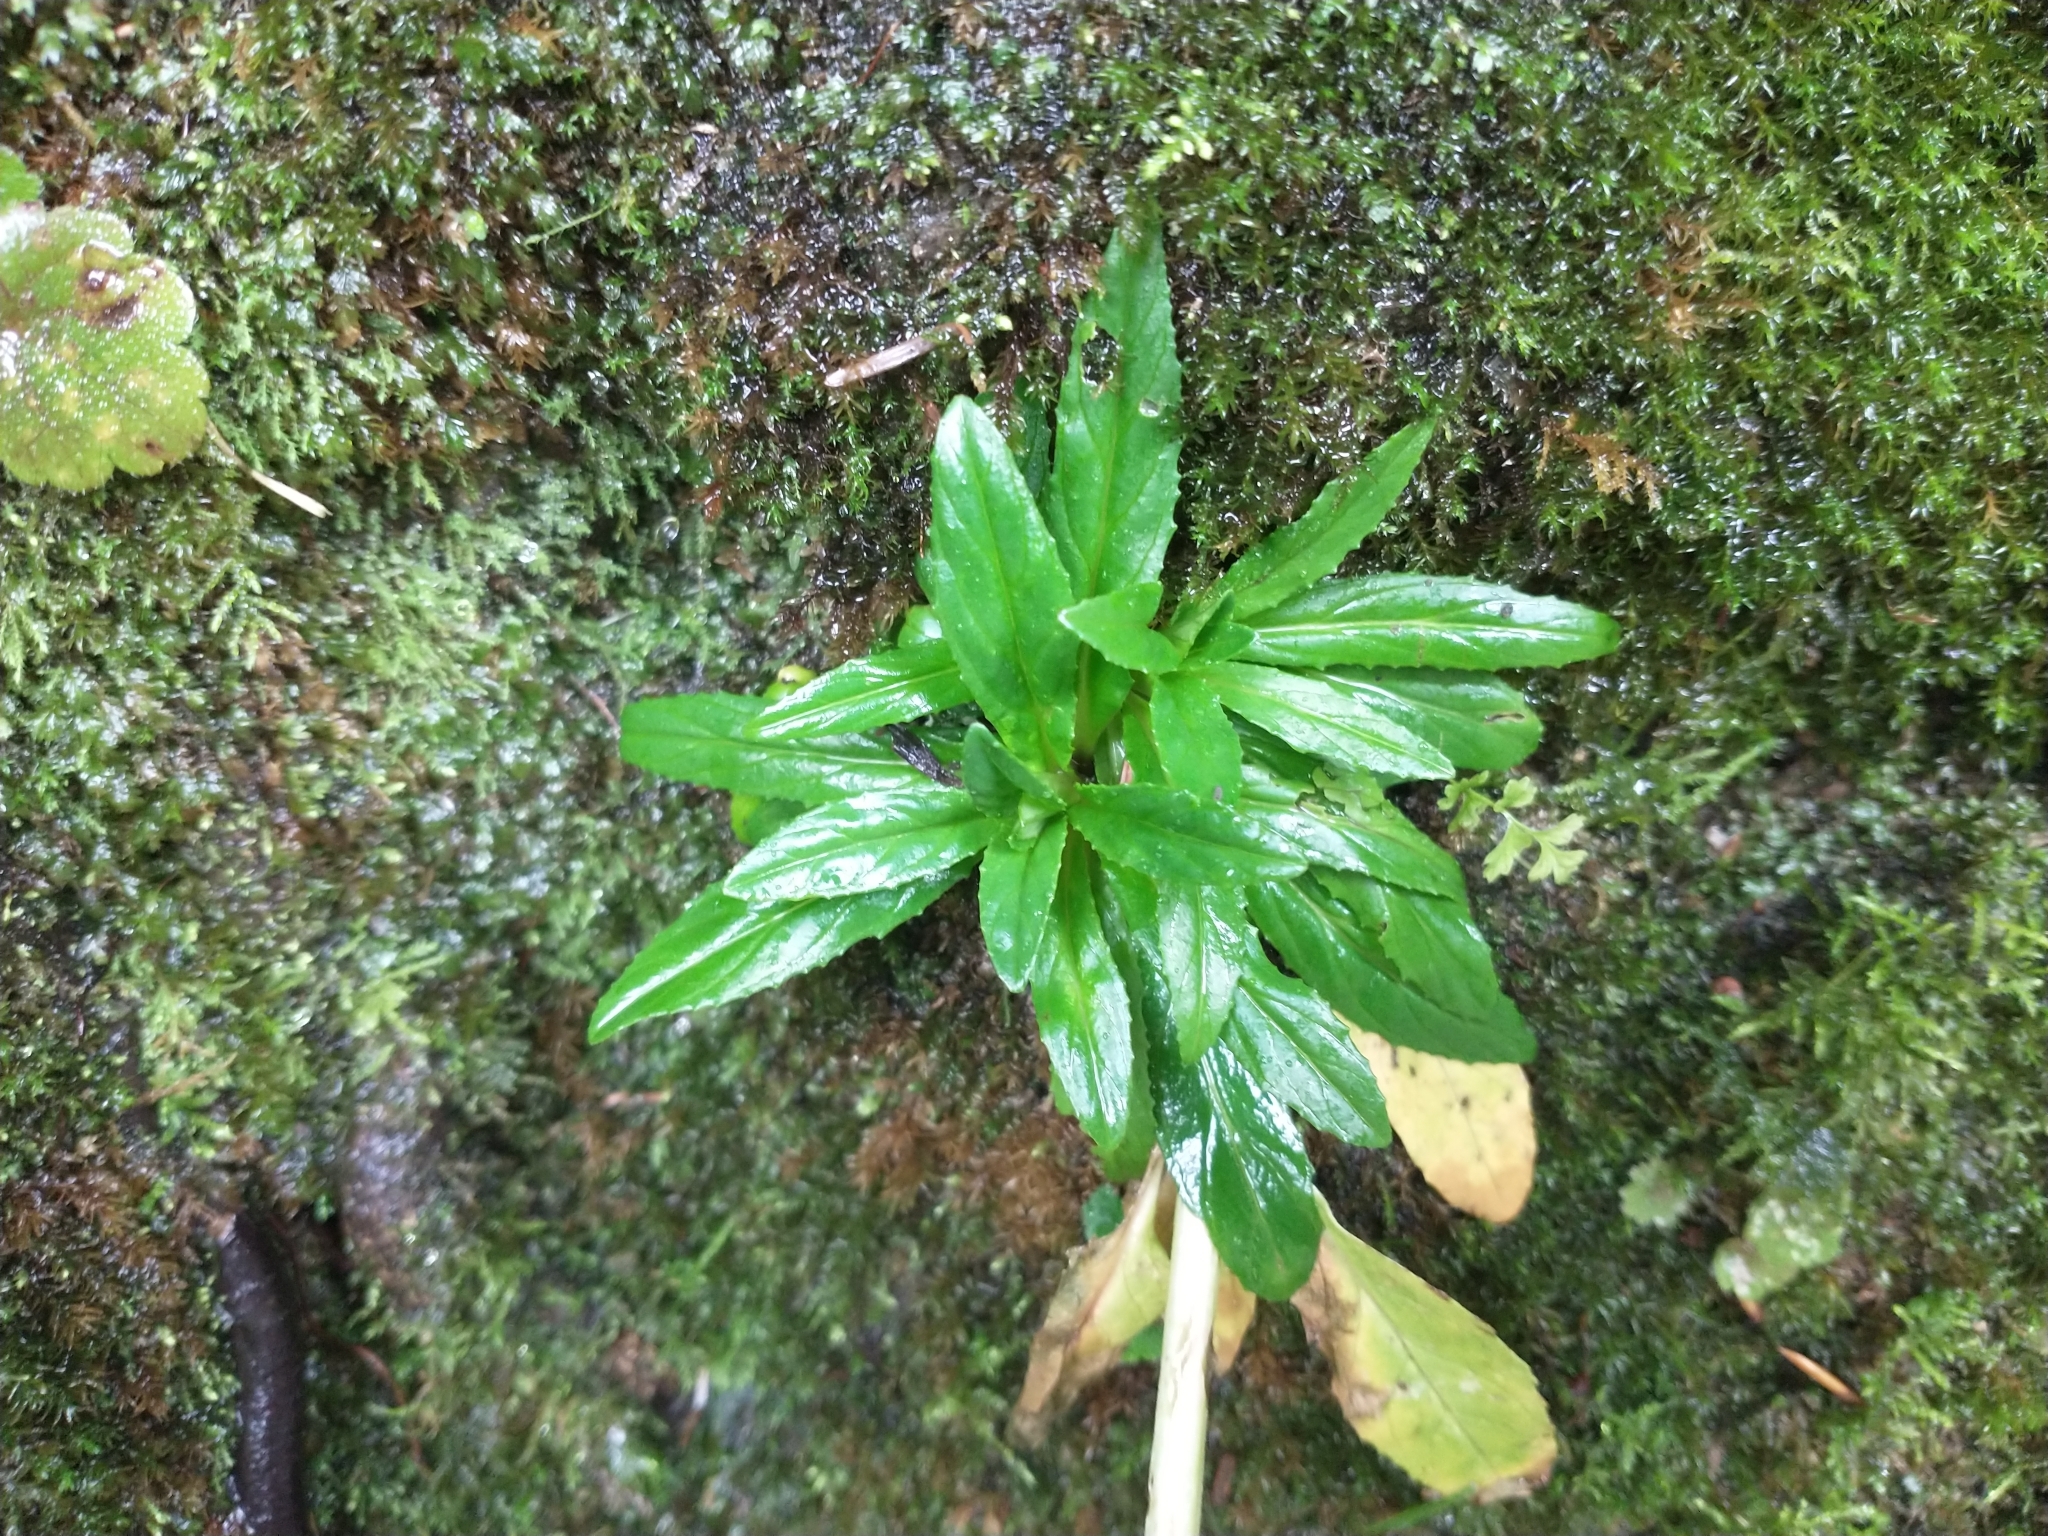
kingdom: Plantae
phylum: Tracheophyta
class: Magnoliopsida
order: Myrtales
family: Onagraceae
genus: Epilobium
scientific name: Epilobium ciliatum
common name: American willowherb
